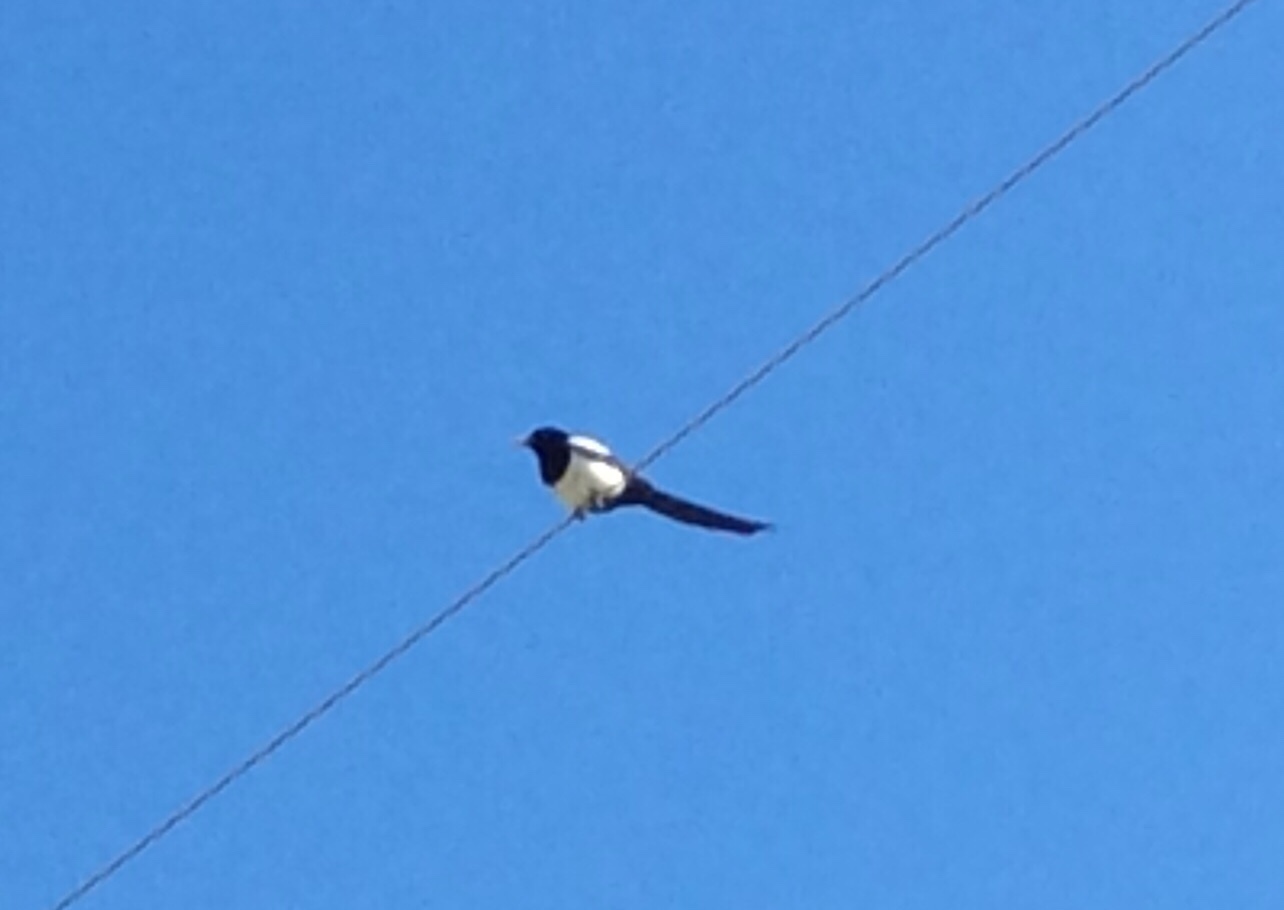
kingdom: Animalia
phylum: Chordata
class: Aves
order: Passeriformes
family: Corvidae
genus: Pica
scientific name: Pica nuttalli
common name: Yellow-billed magpie
